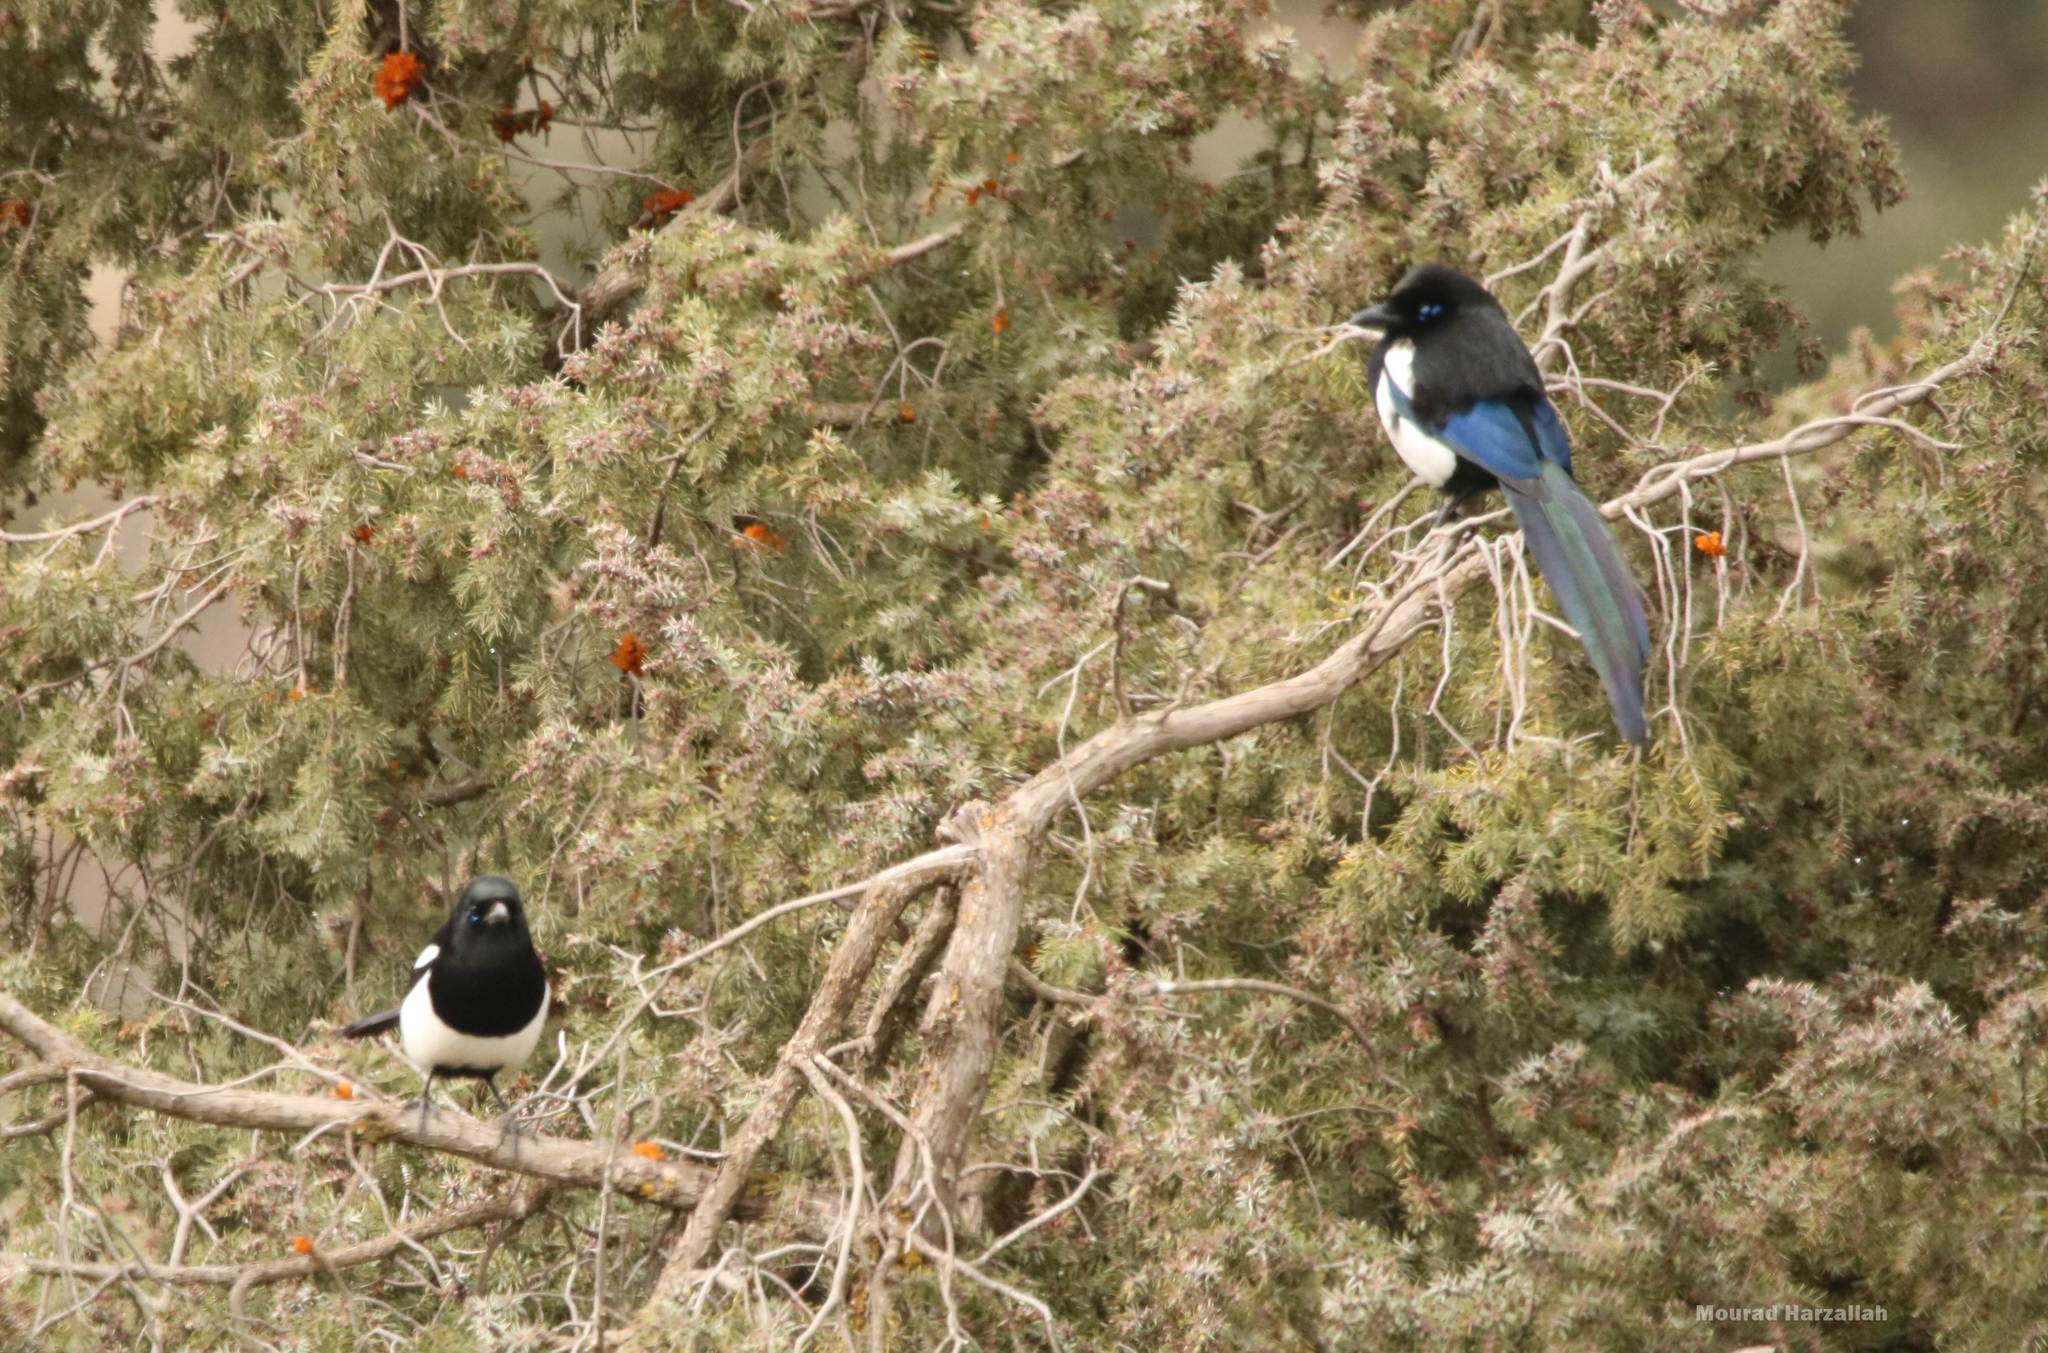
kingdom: Animalia
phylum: Chordata
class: Aves
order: Passeriformes
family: Corvidae
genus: Pica
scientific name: Pica mauritanica
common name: Maghreb magpie
